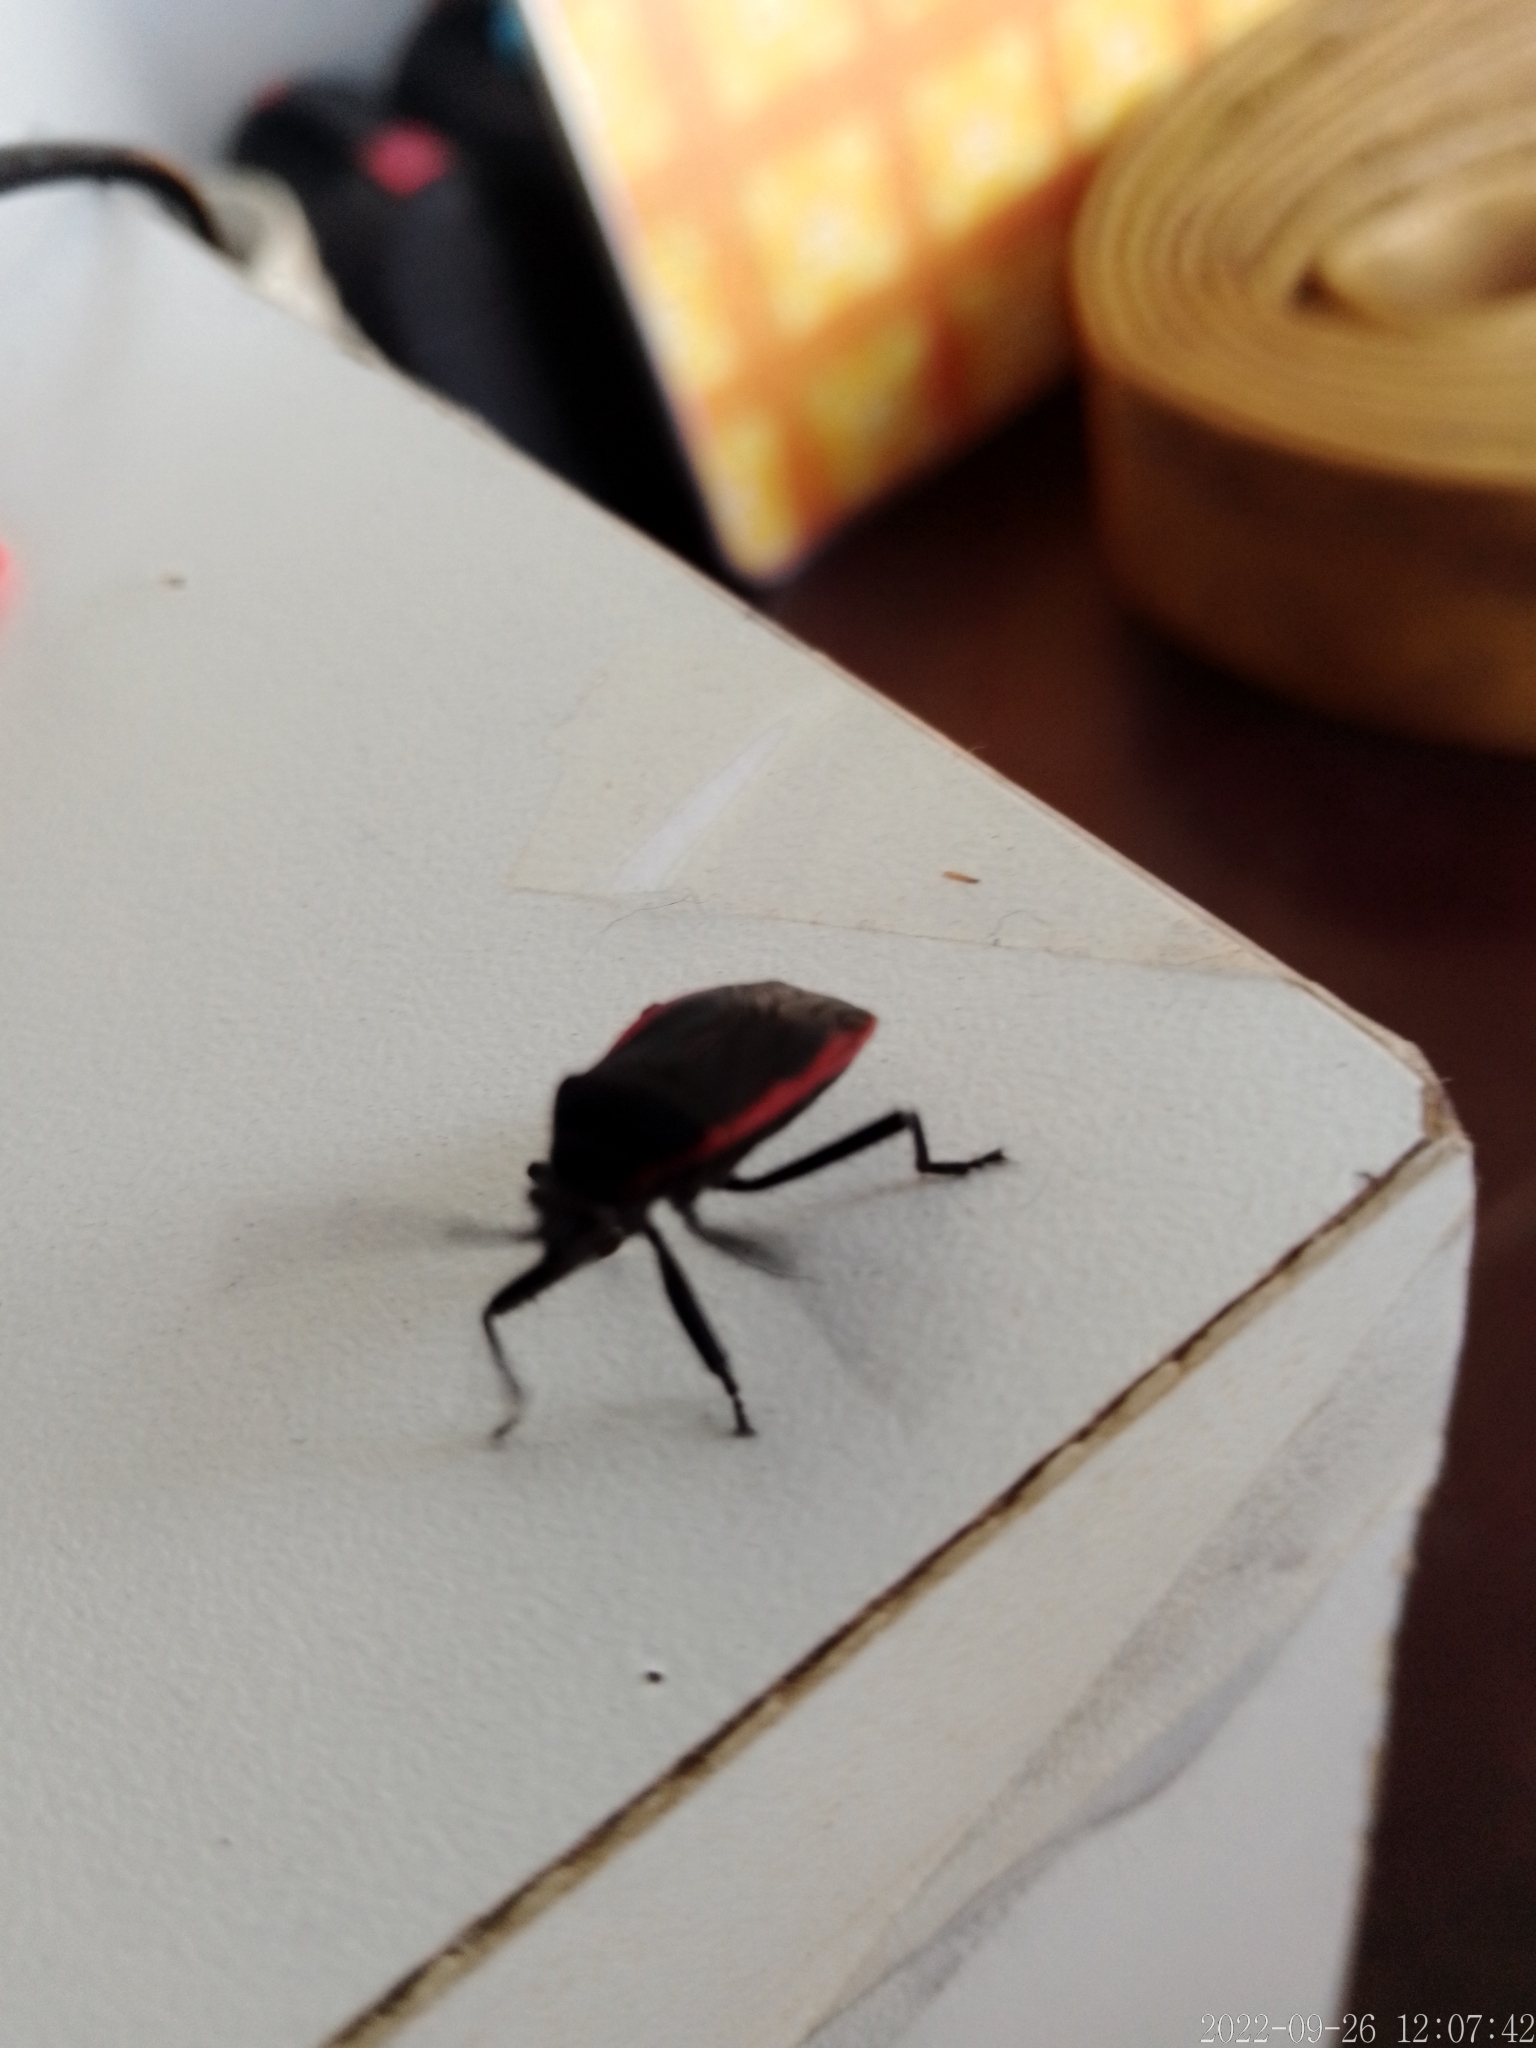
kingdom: Animalia
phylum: Arthropoda
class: Insecta
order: Hemiptera
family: Largidae
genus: Largus
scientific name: Largus rufipennis
